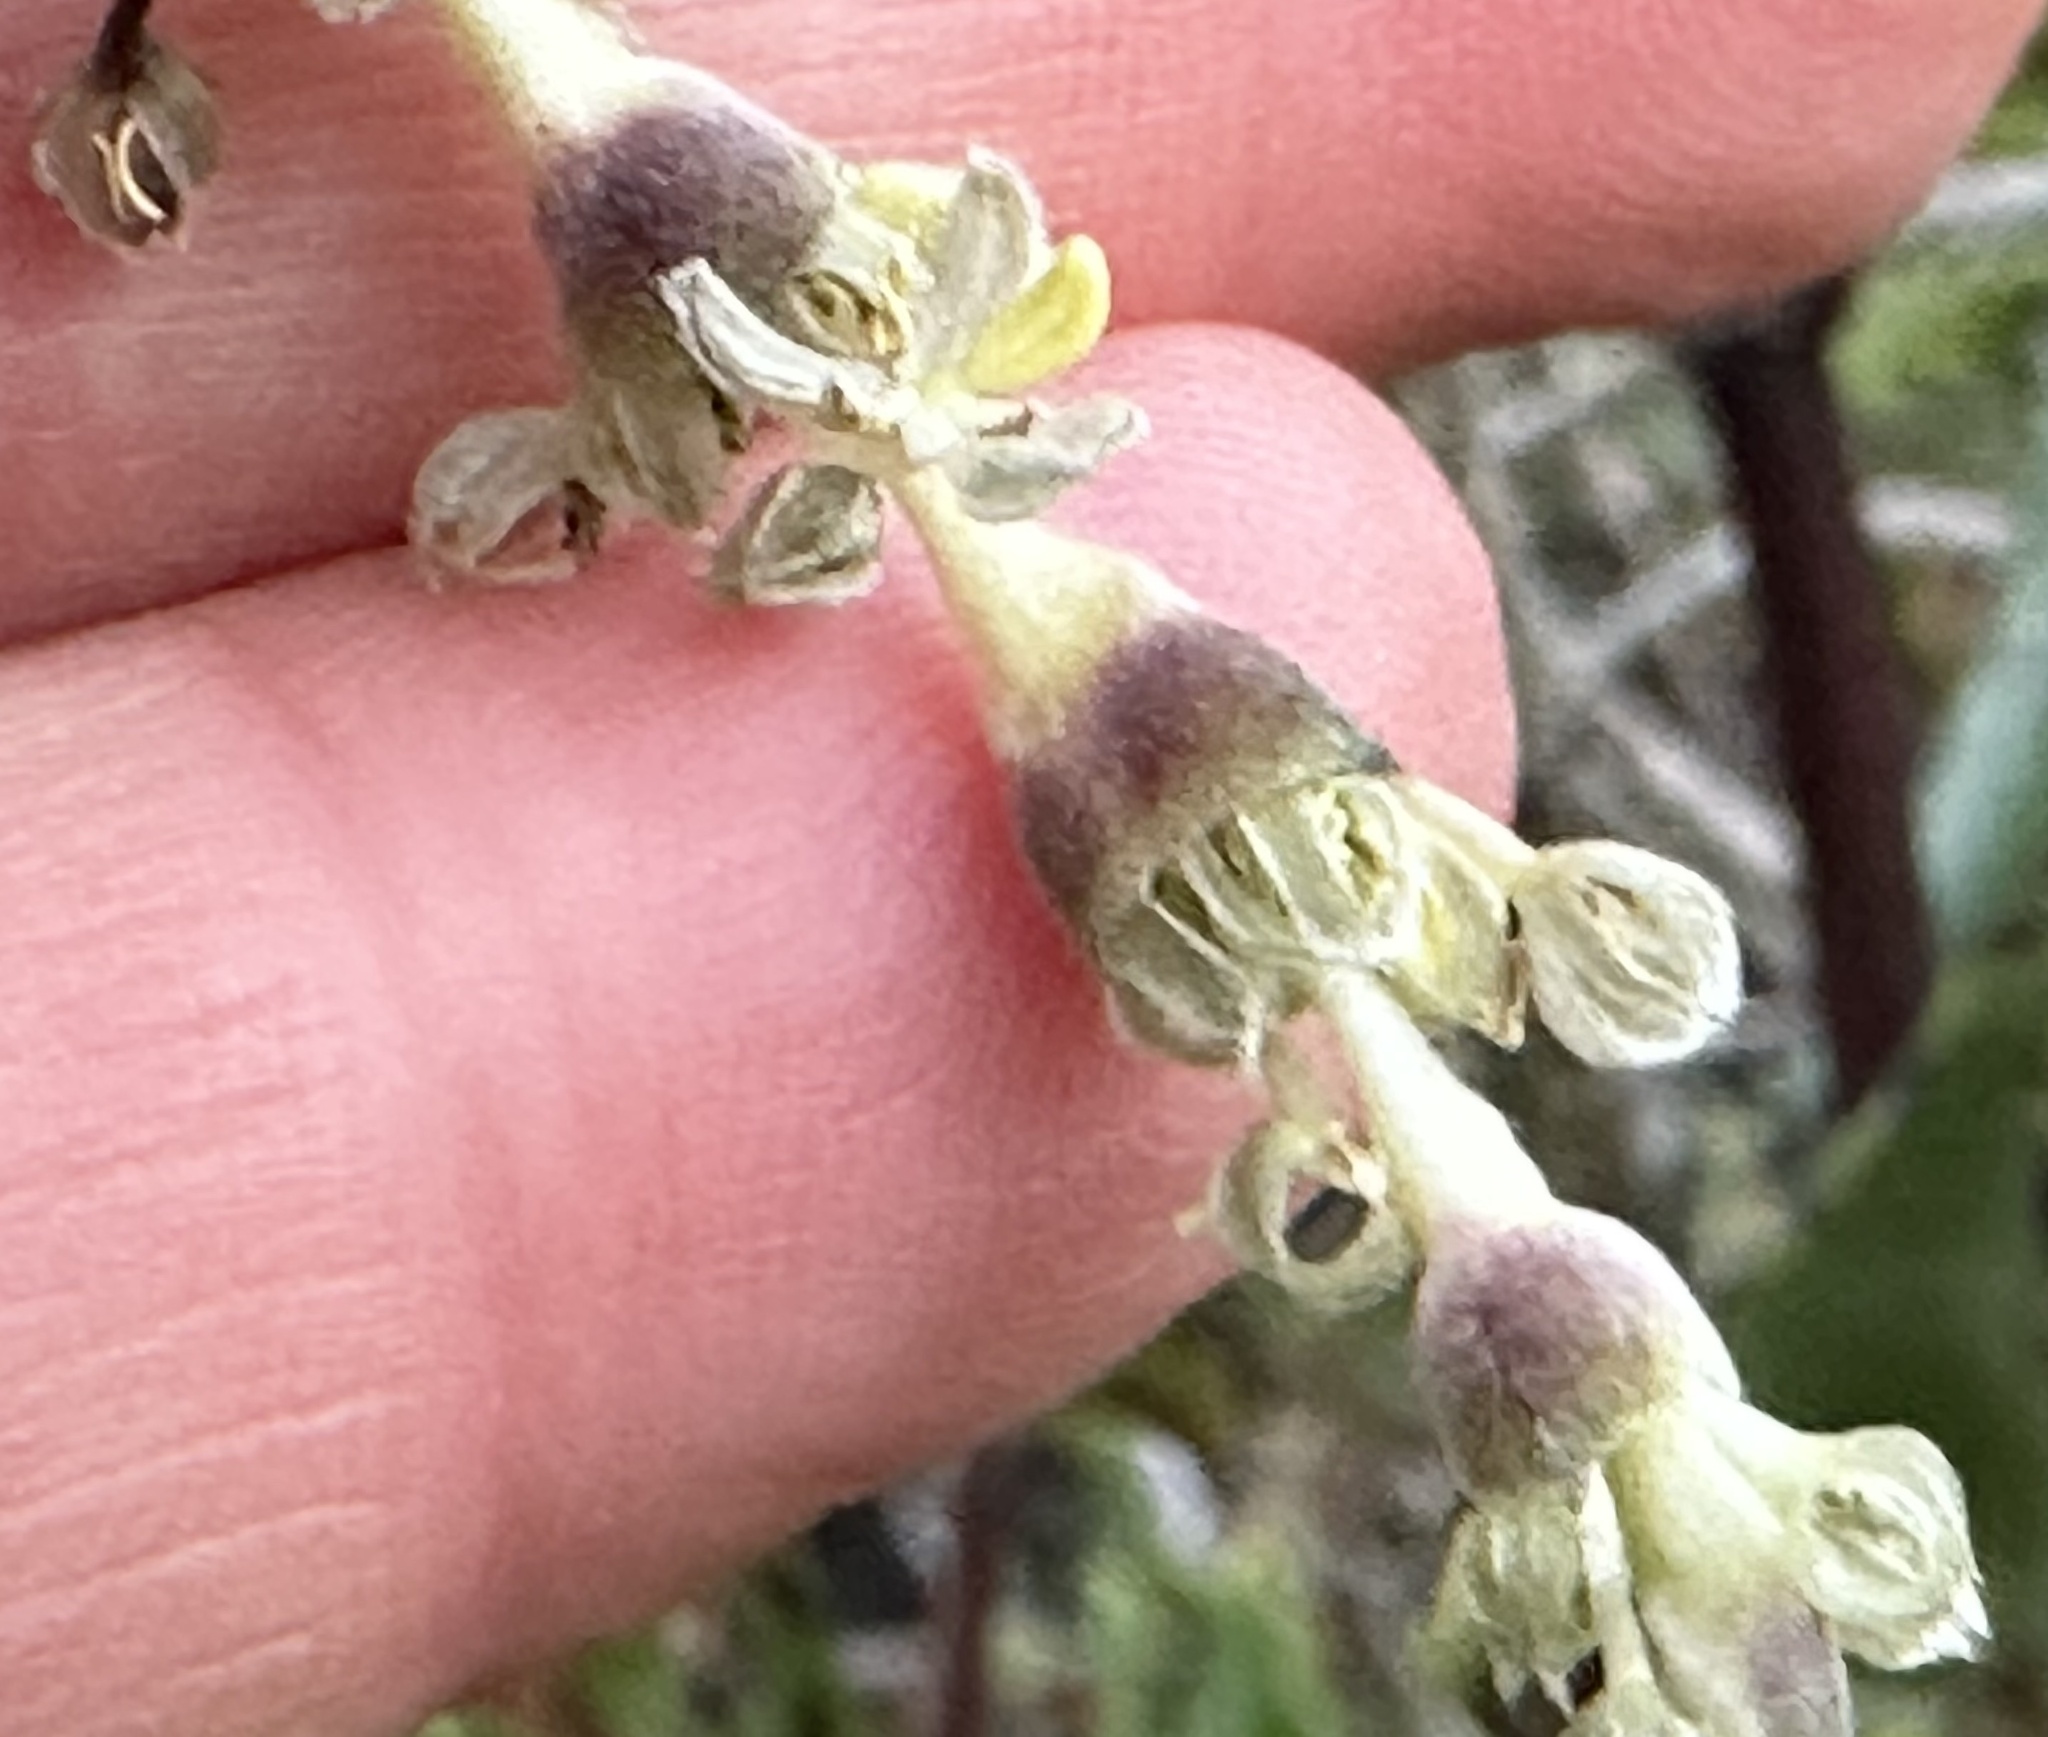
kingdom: Plantae
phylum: Tracheophyta
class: Magnoliopsida
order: Garryales
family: Garryaceae
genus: Garrya
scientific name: Garrya elliptica
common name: Silk-tassel
